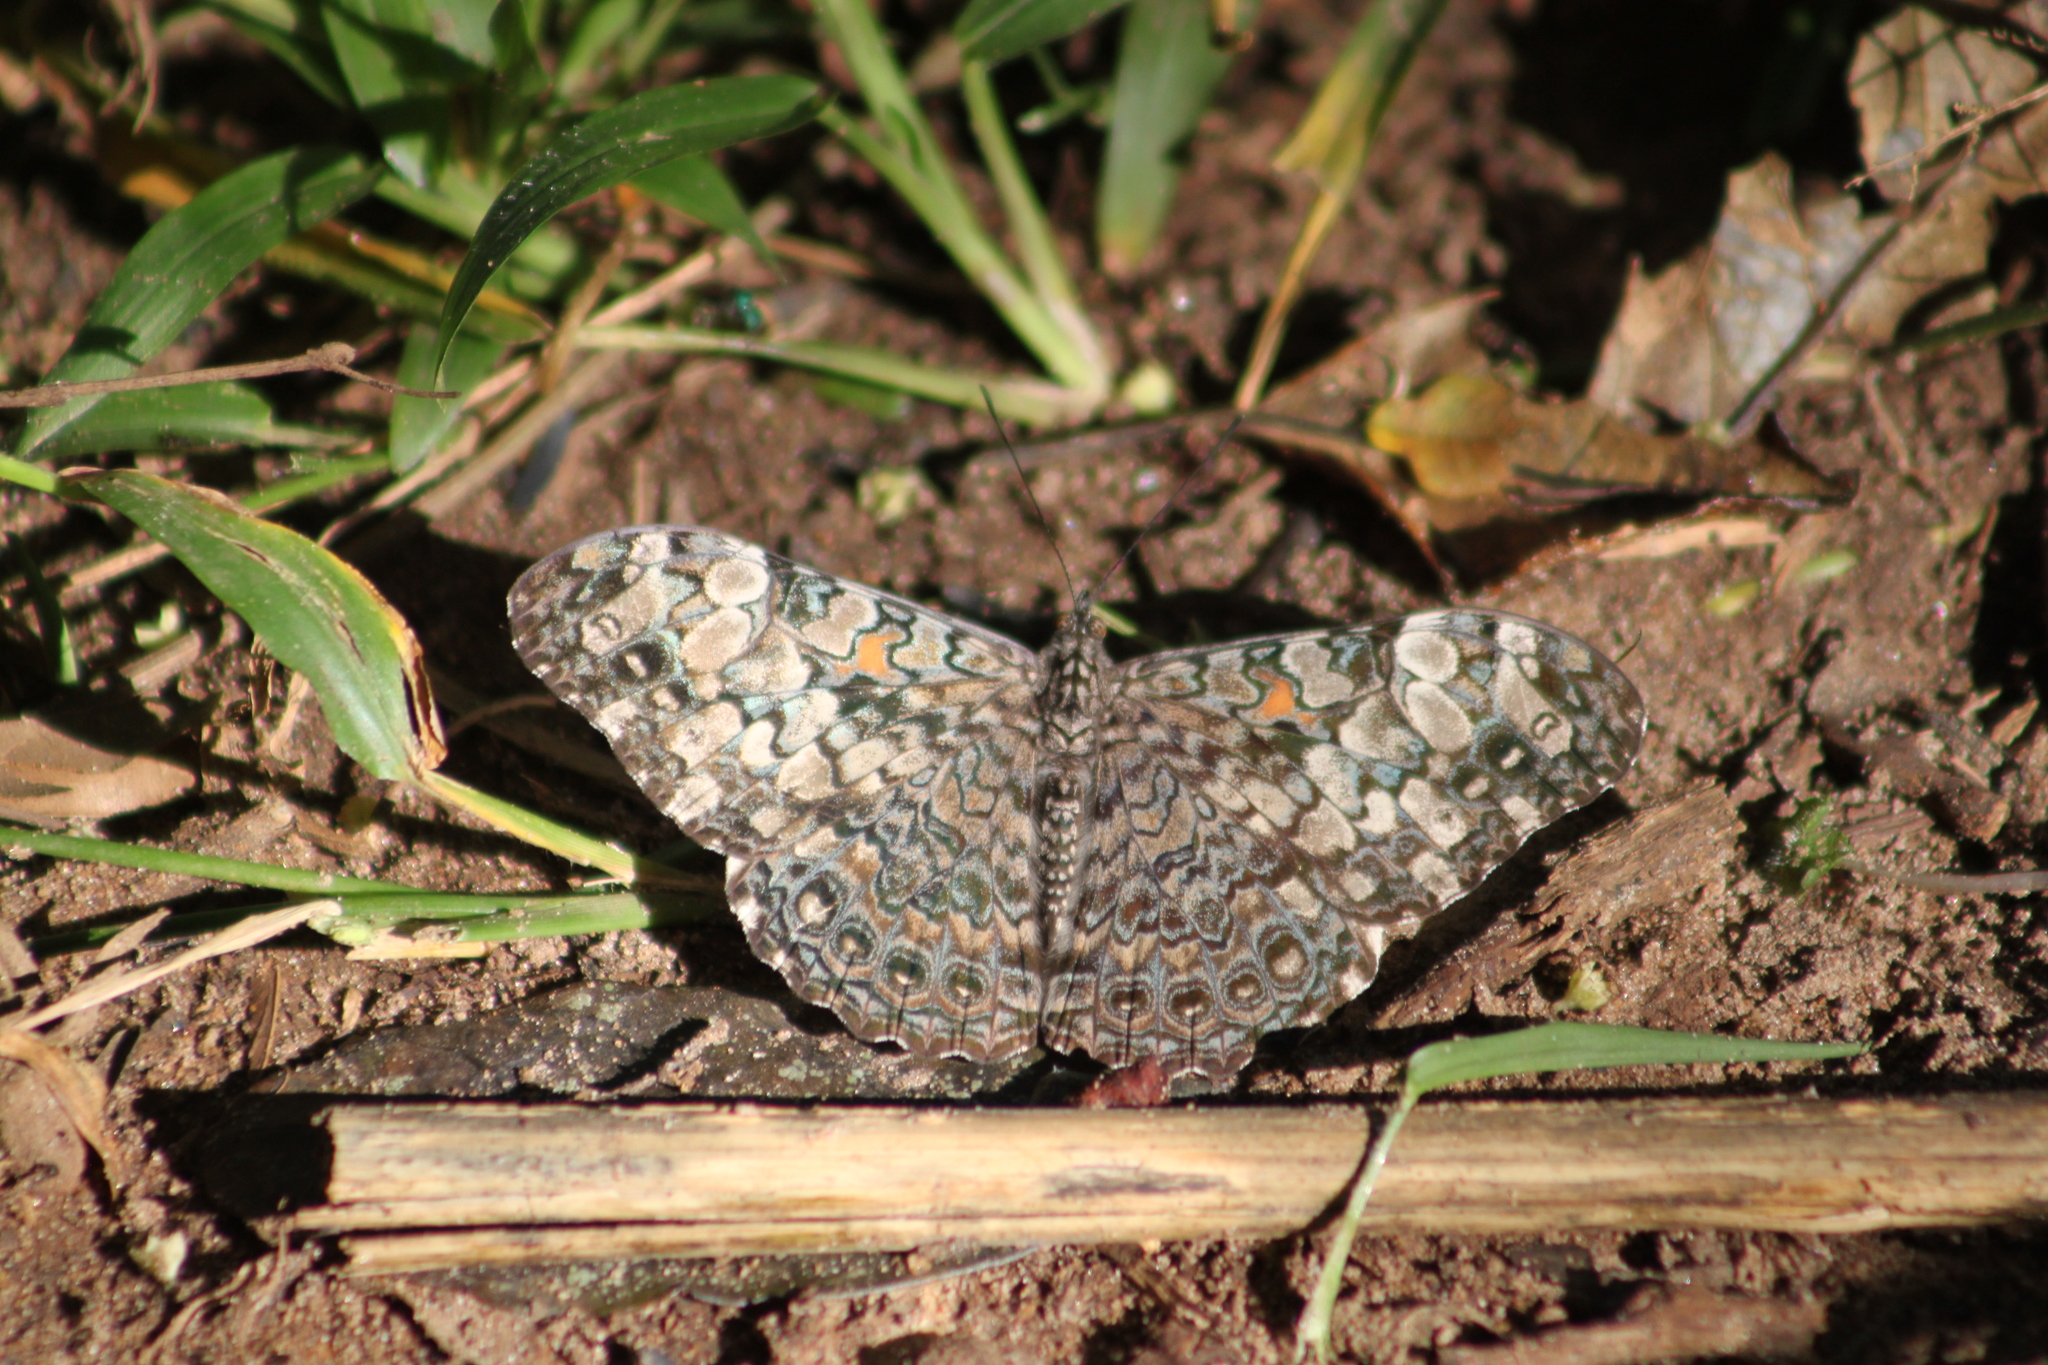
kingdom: Animalia
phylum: Arthropoda
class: Insecta
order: Lepidoptera
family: Nymphalidae
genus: Hamadryas
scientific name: Hamadryas epinome
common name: Epinome cracker
